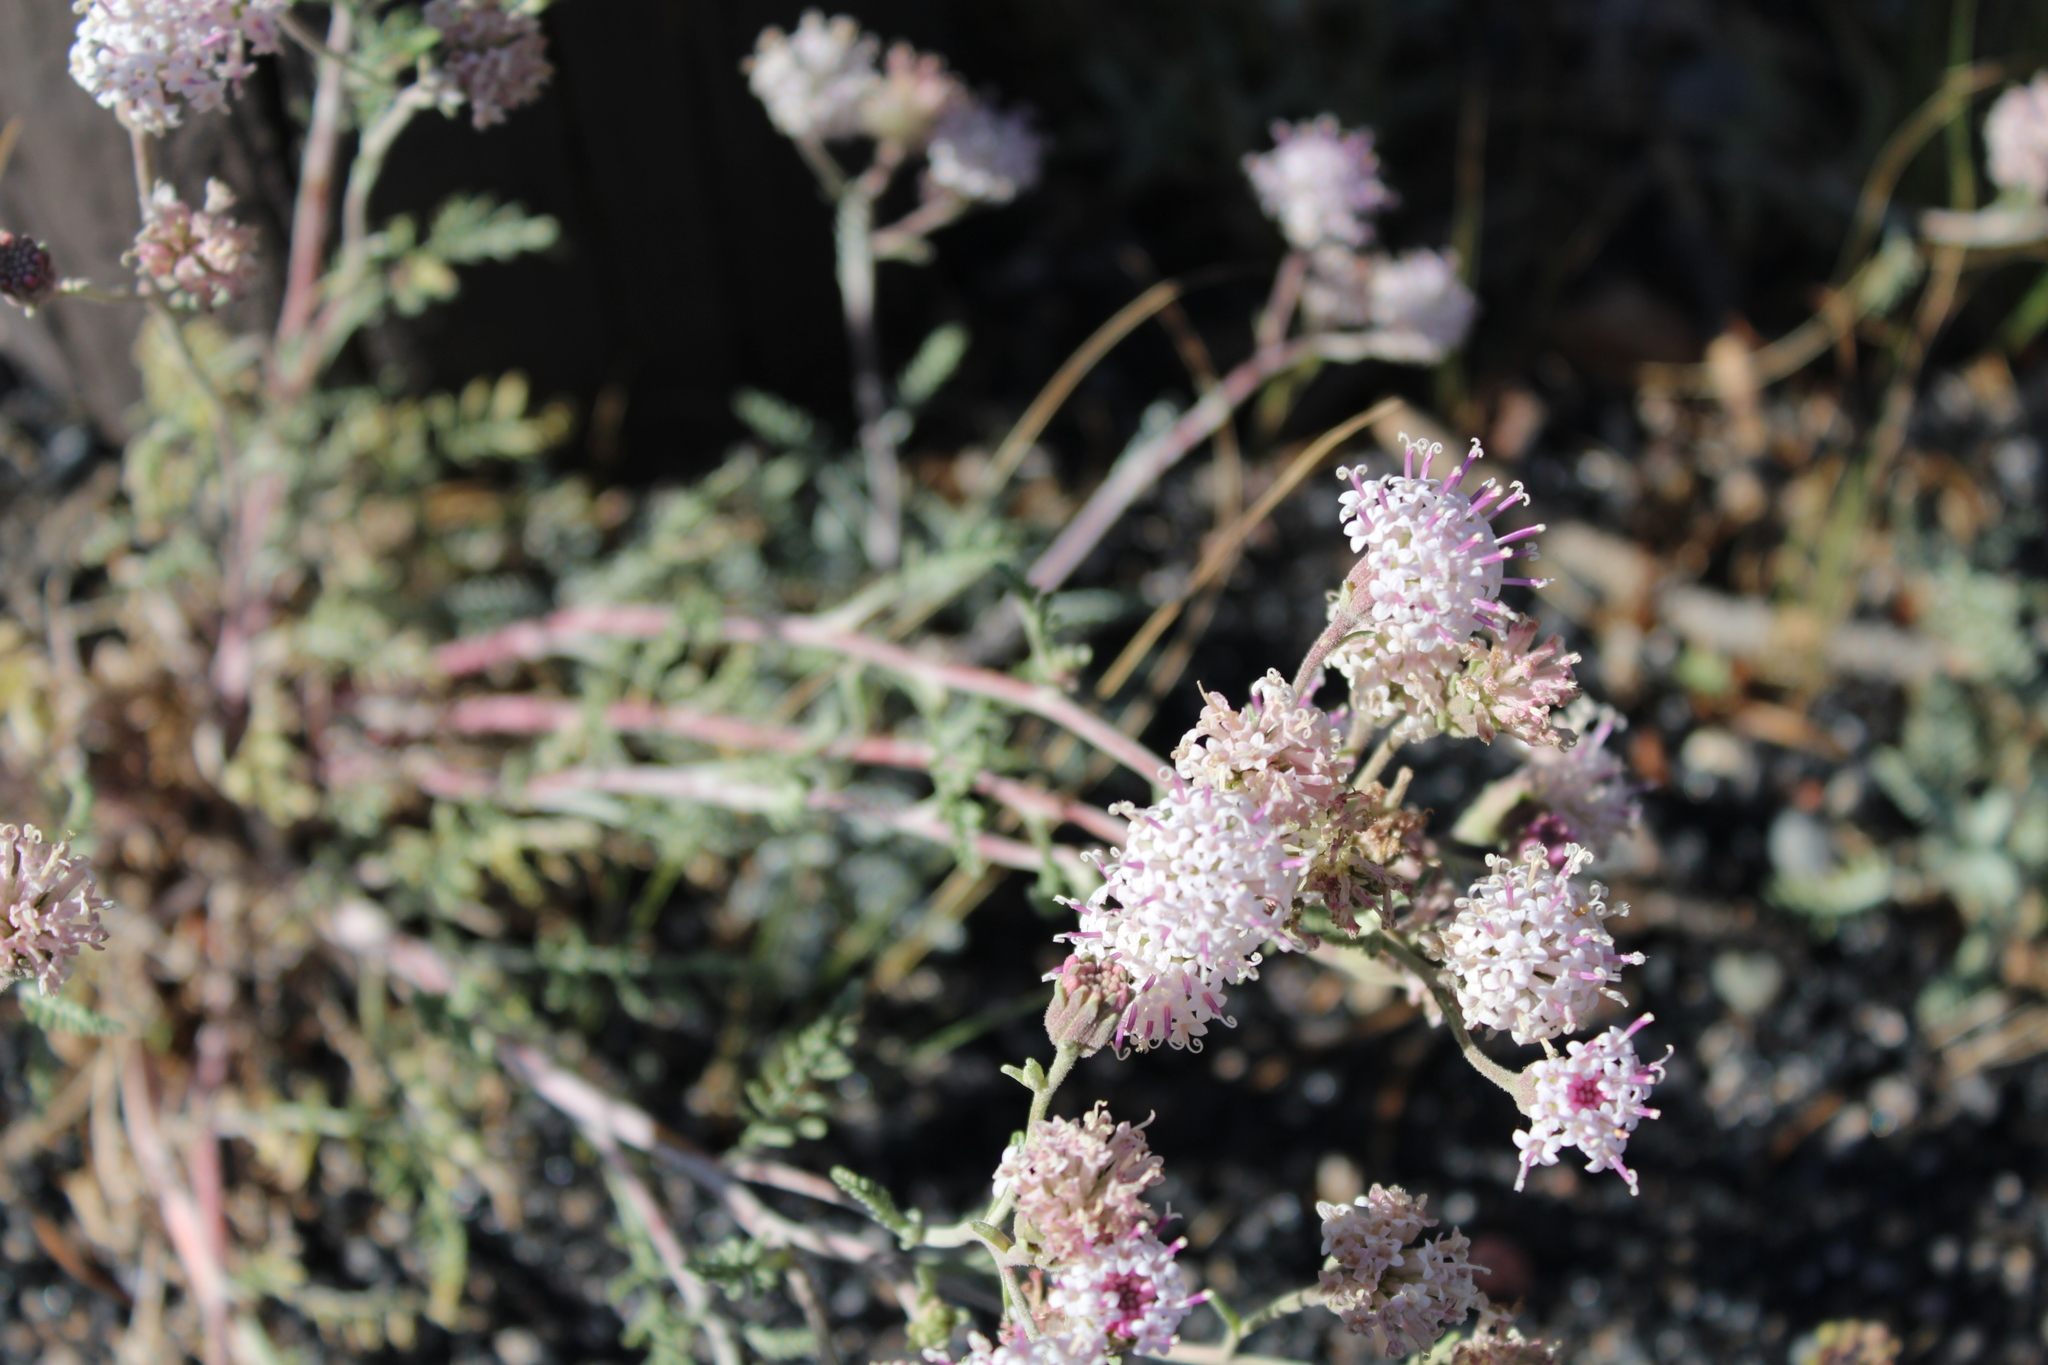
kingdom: Plantae
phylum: Tracheophyta
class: Magnoliopsida
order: Asterales
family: Asteraceae
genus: Chaenactis
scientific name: Chaenactis douglasii
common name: Hoary pincushion
